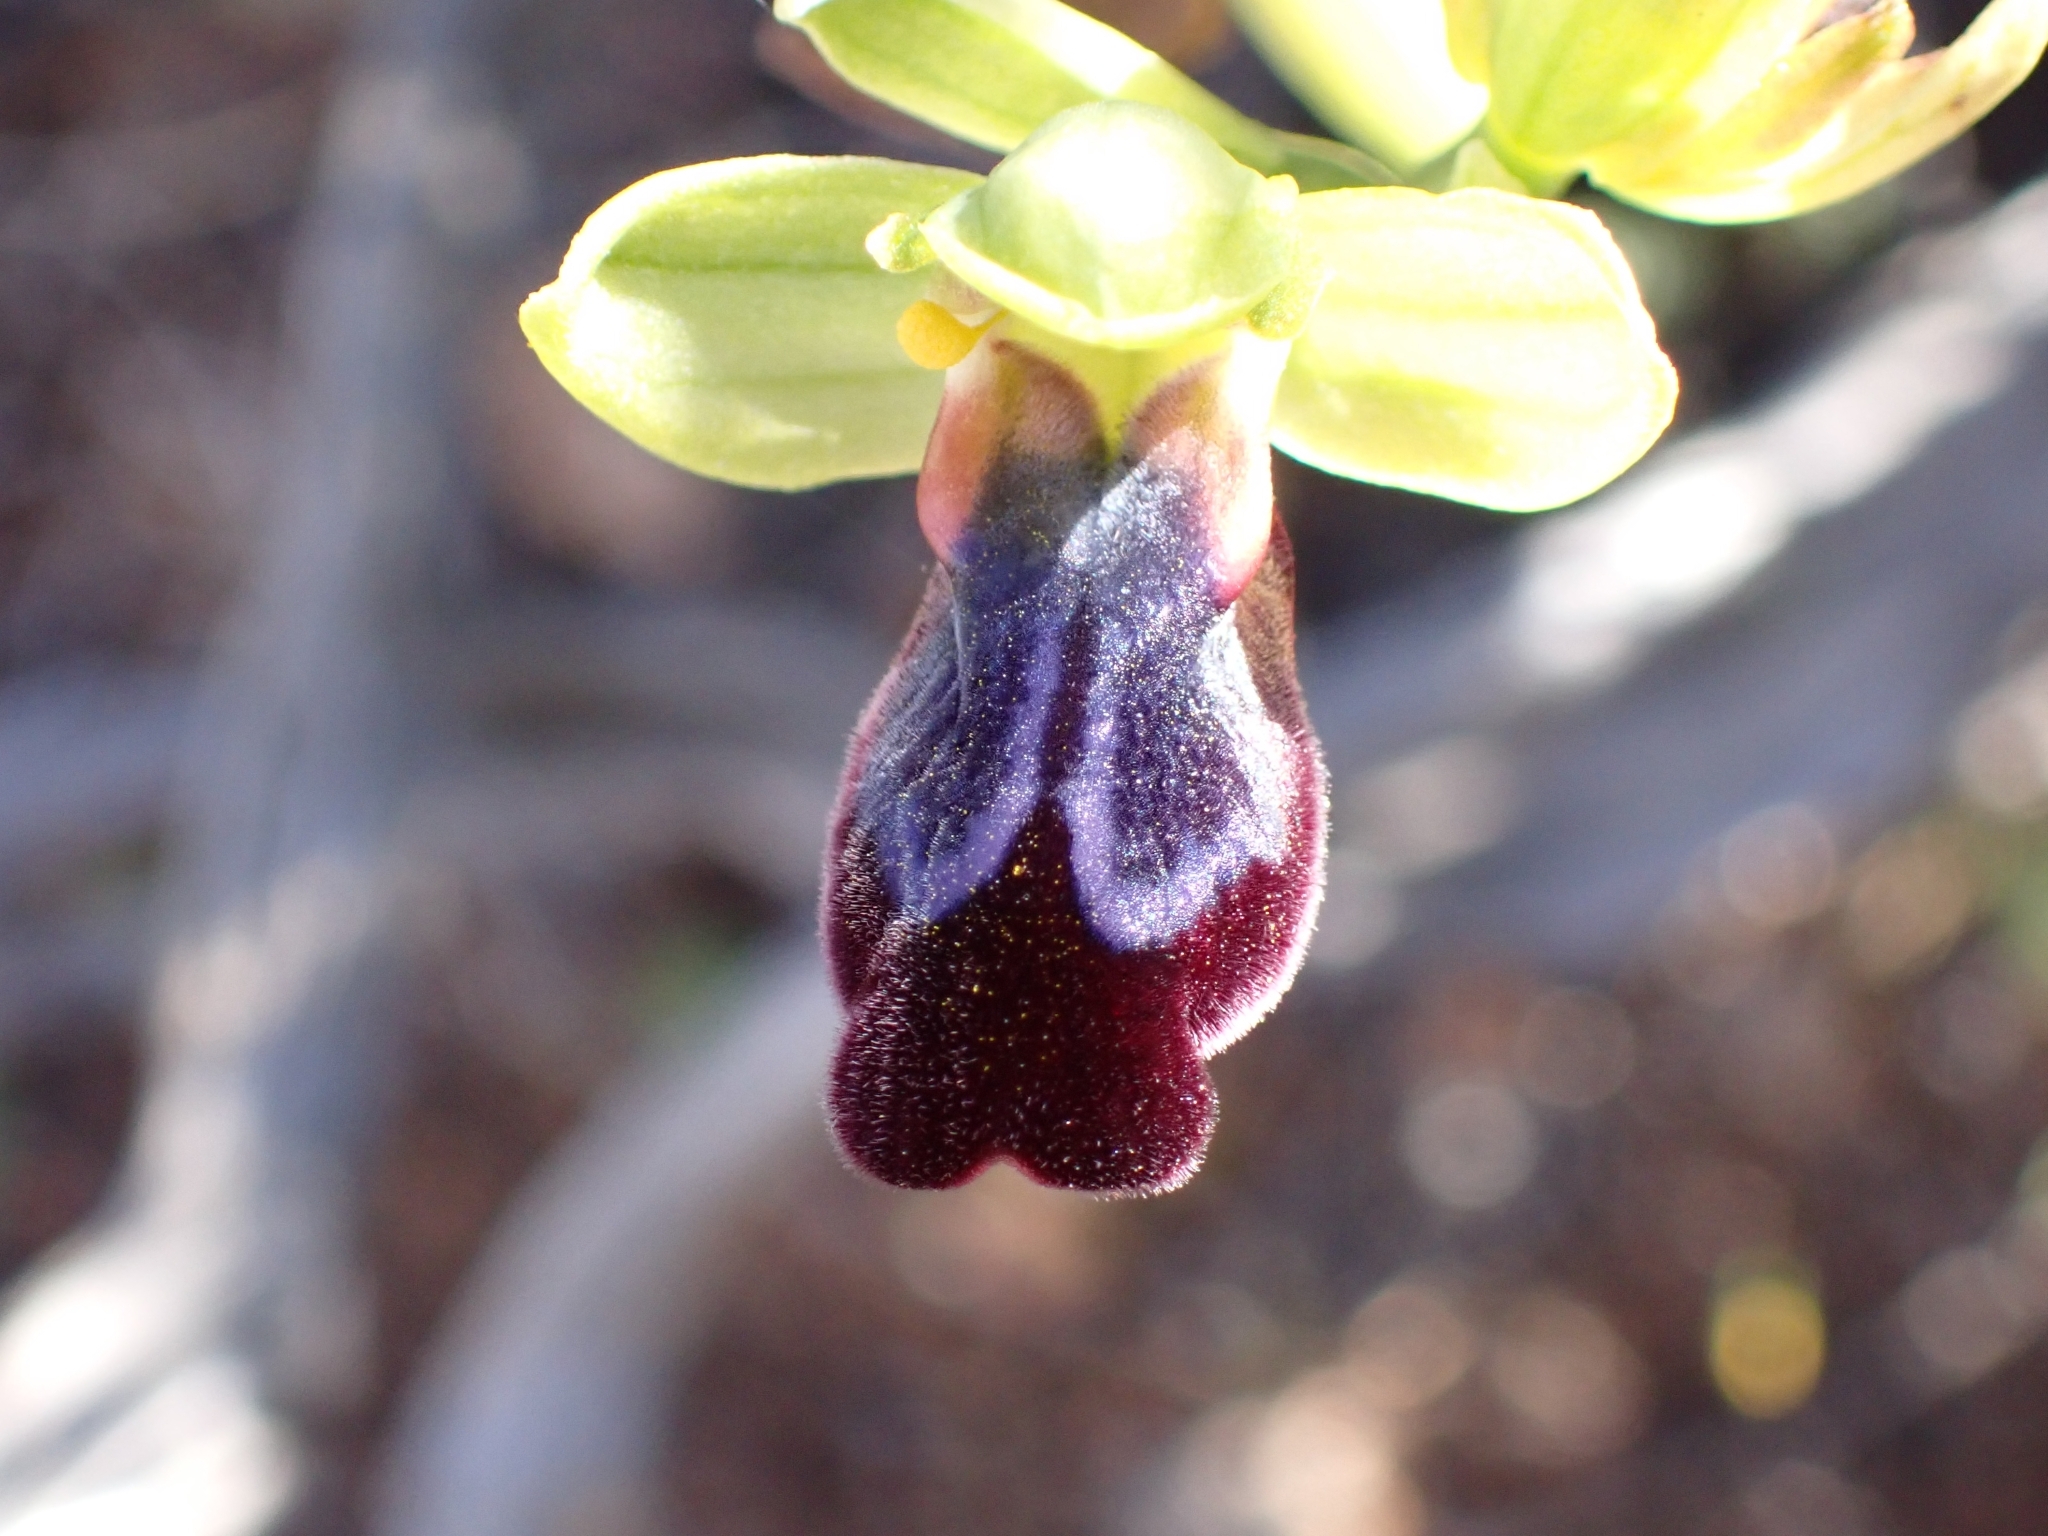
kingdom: Plantae
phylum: Tracheophyta
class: Liliopsida
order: Asparagales
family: Orchidaceae
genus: Ophrys
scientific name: Ophrys fusca
